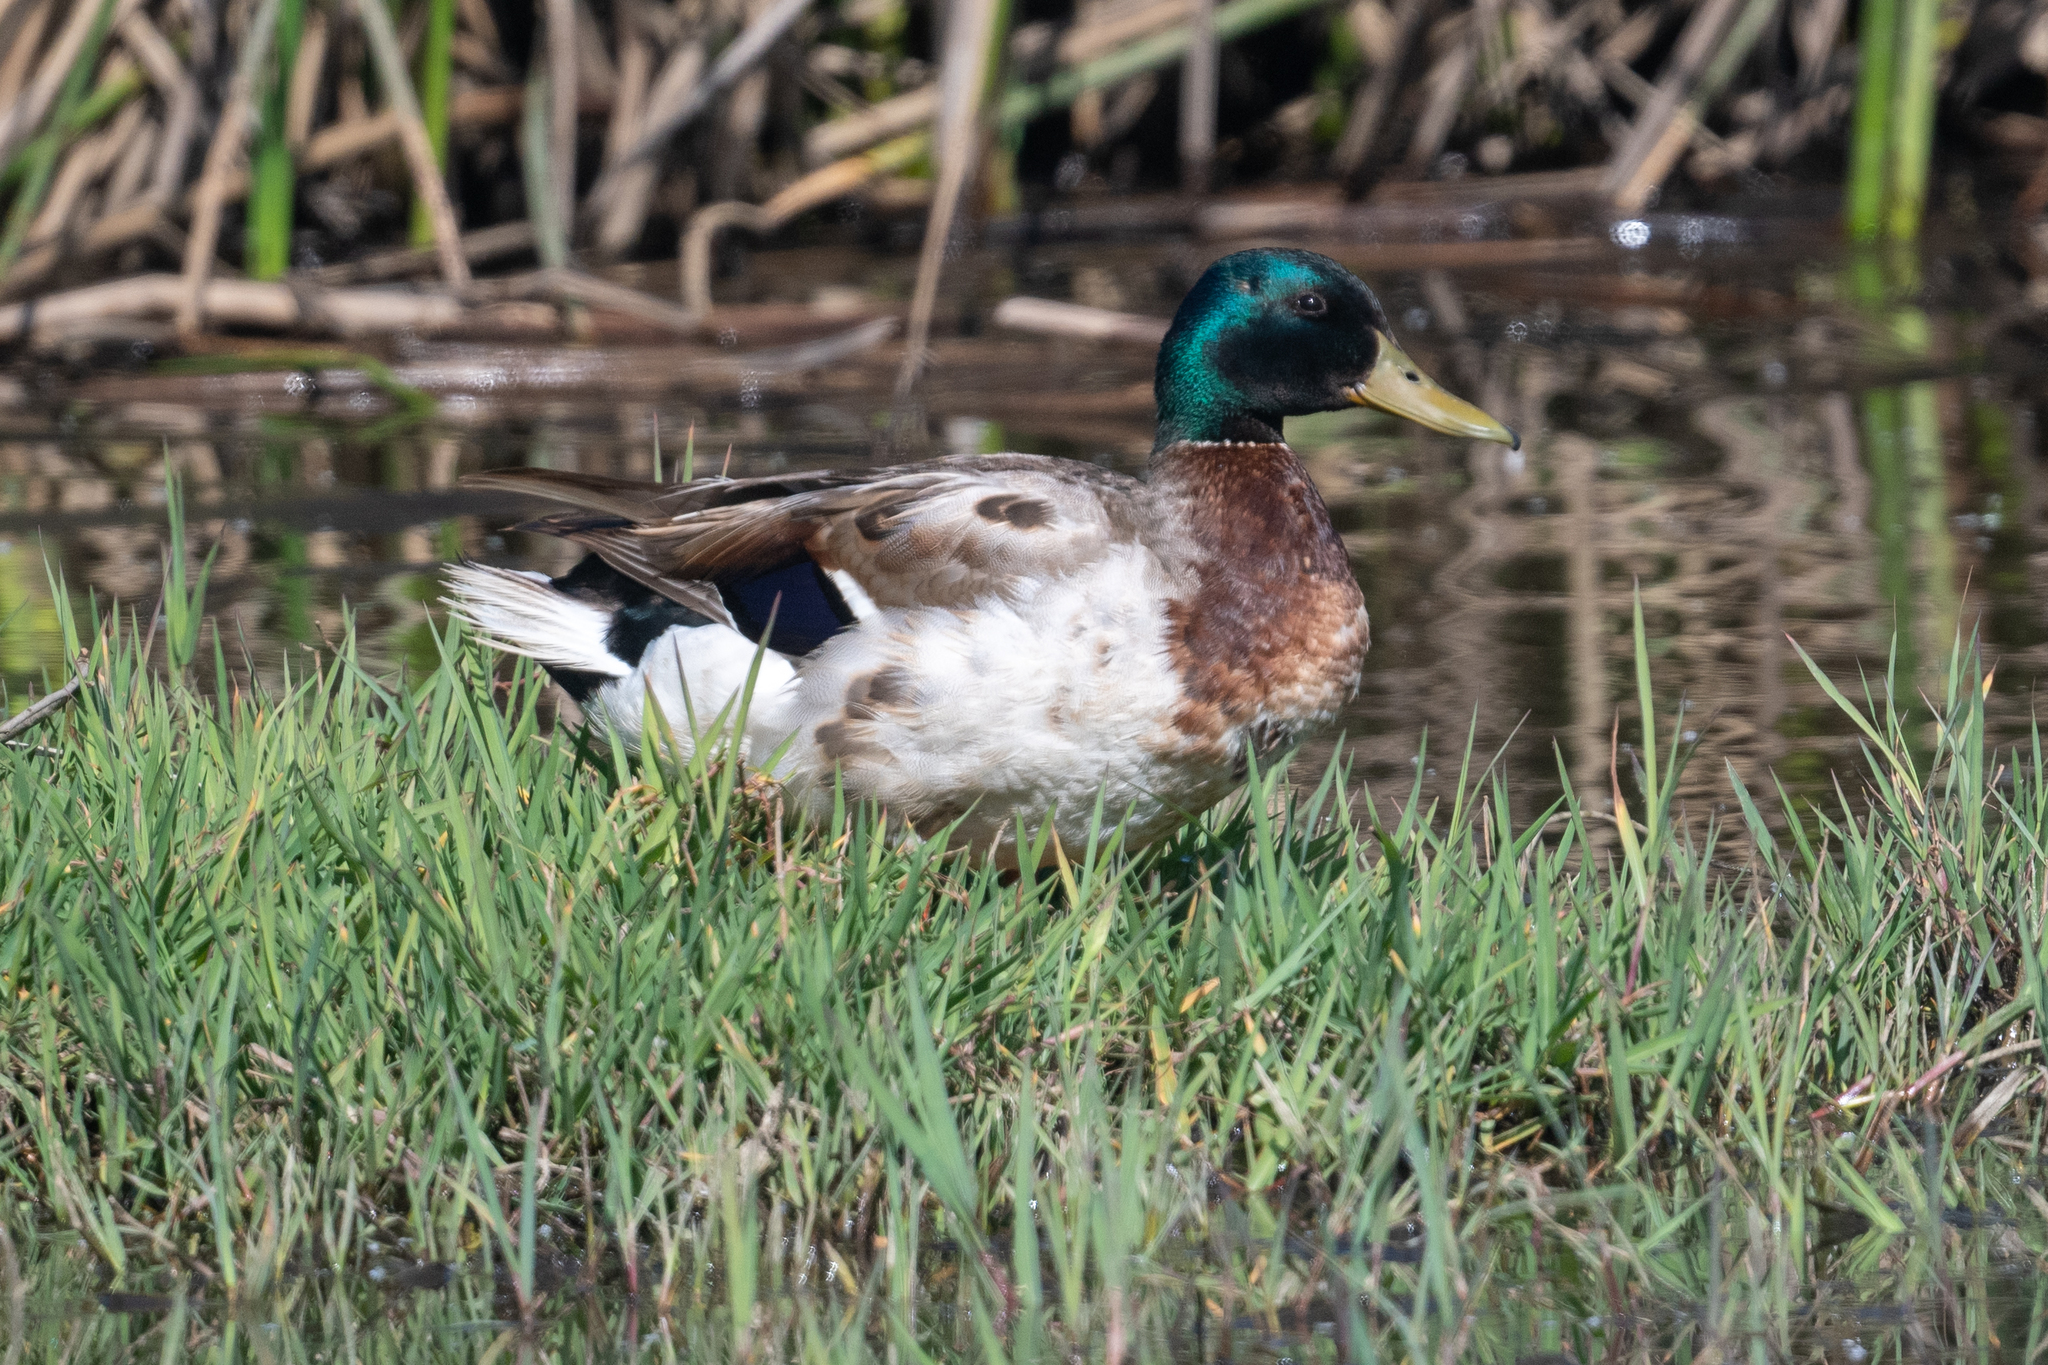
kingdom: Animalia
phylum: Chordata
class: Aves
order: Anseriformes
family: Anatidae
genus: Anas
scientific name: Anas platyrhynchos
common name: Mallard
